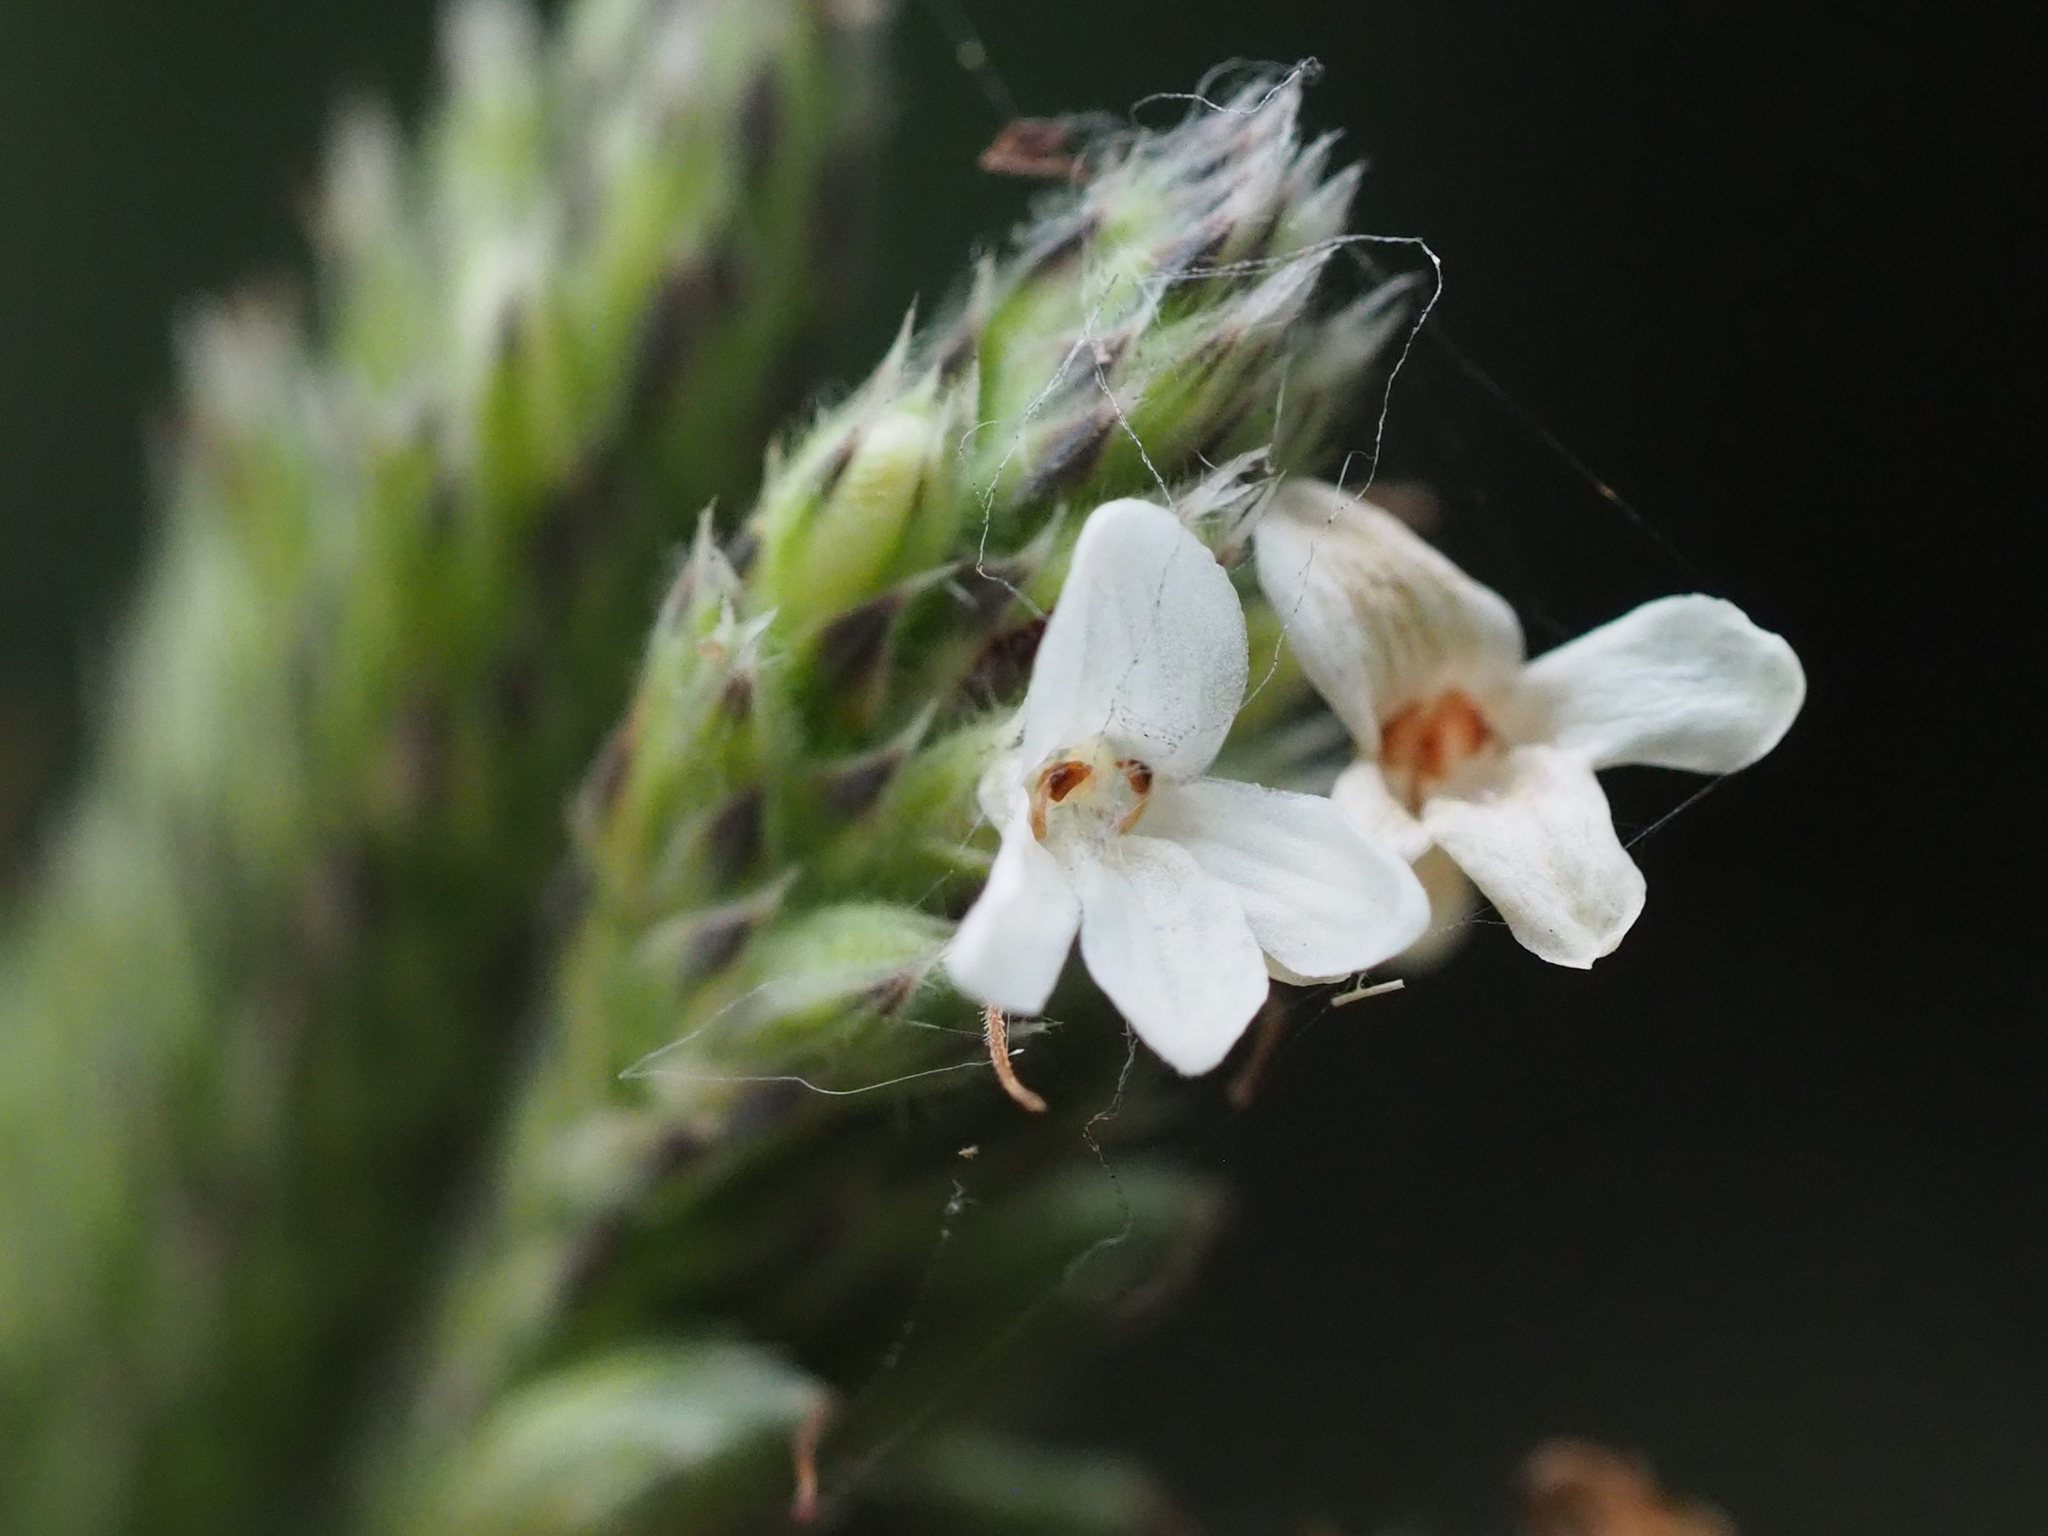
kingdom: Plantae
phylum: Tracheophyta
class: Magnoliopsida
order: Lamiales
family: Acanthaceae
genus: Lepidagathis
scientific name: Lepidagathis formosensis
